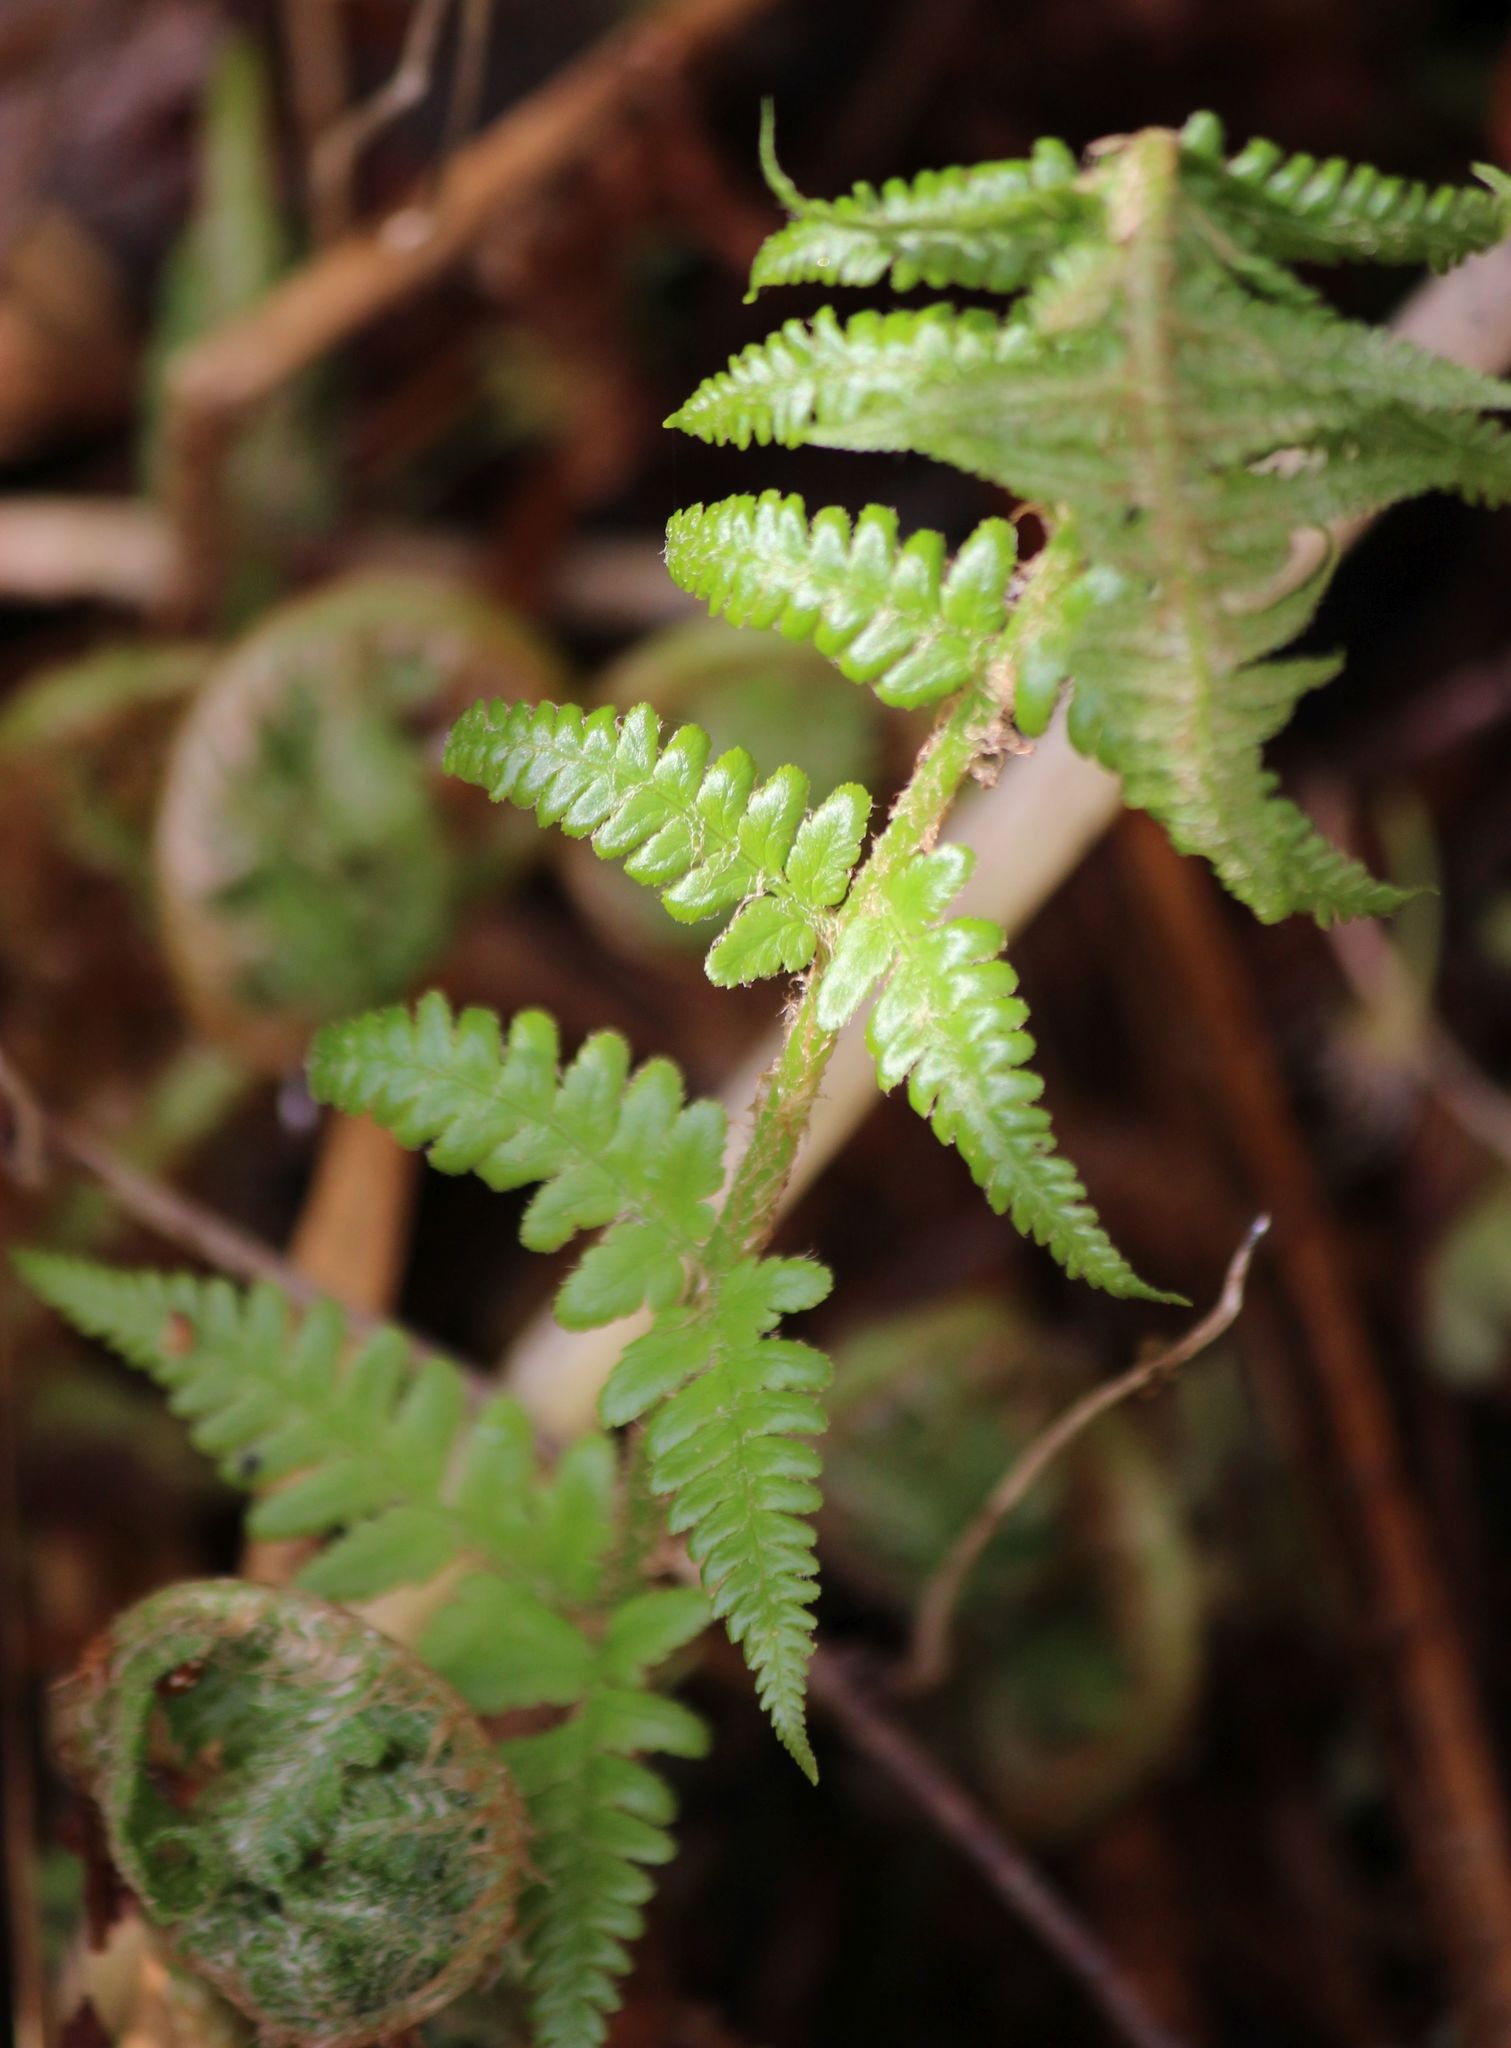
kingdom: Plantae
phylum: Tracheophyta
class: Polypodiopsida
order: Polypodiales
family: Dryopteridaceae
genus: Dryopteris
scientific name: Dryopteris filix-mas
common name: Male fern
